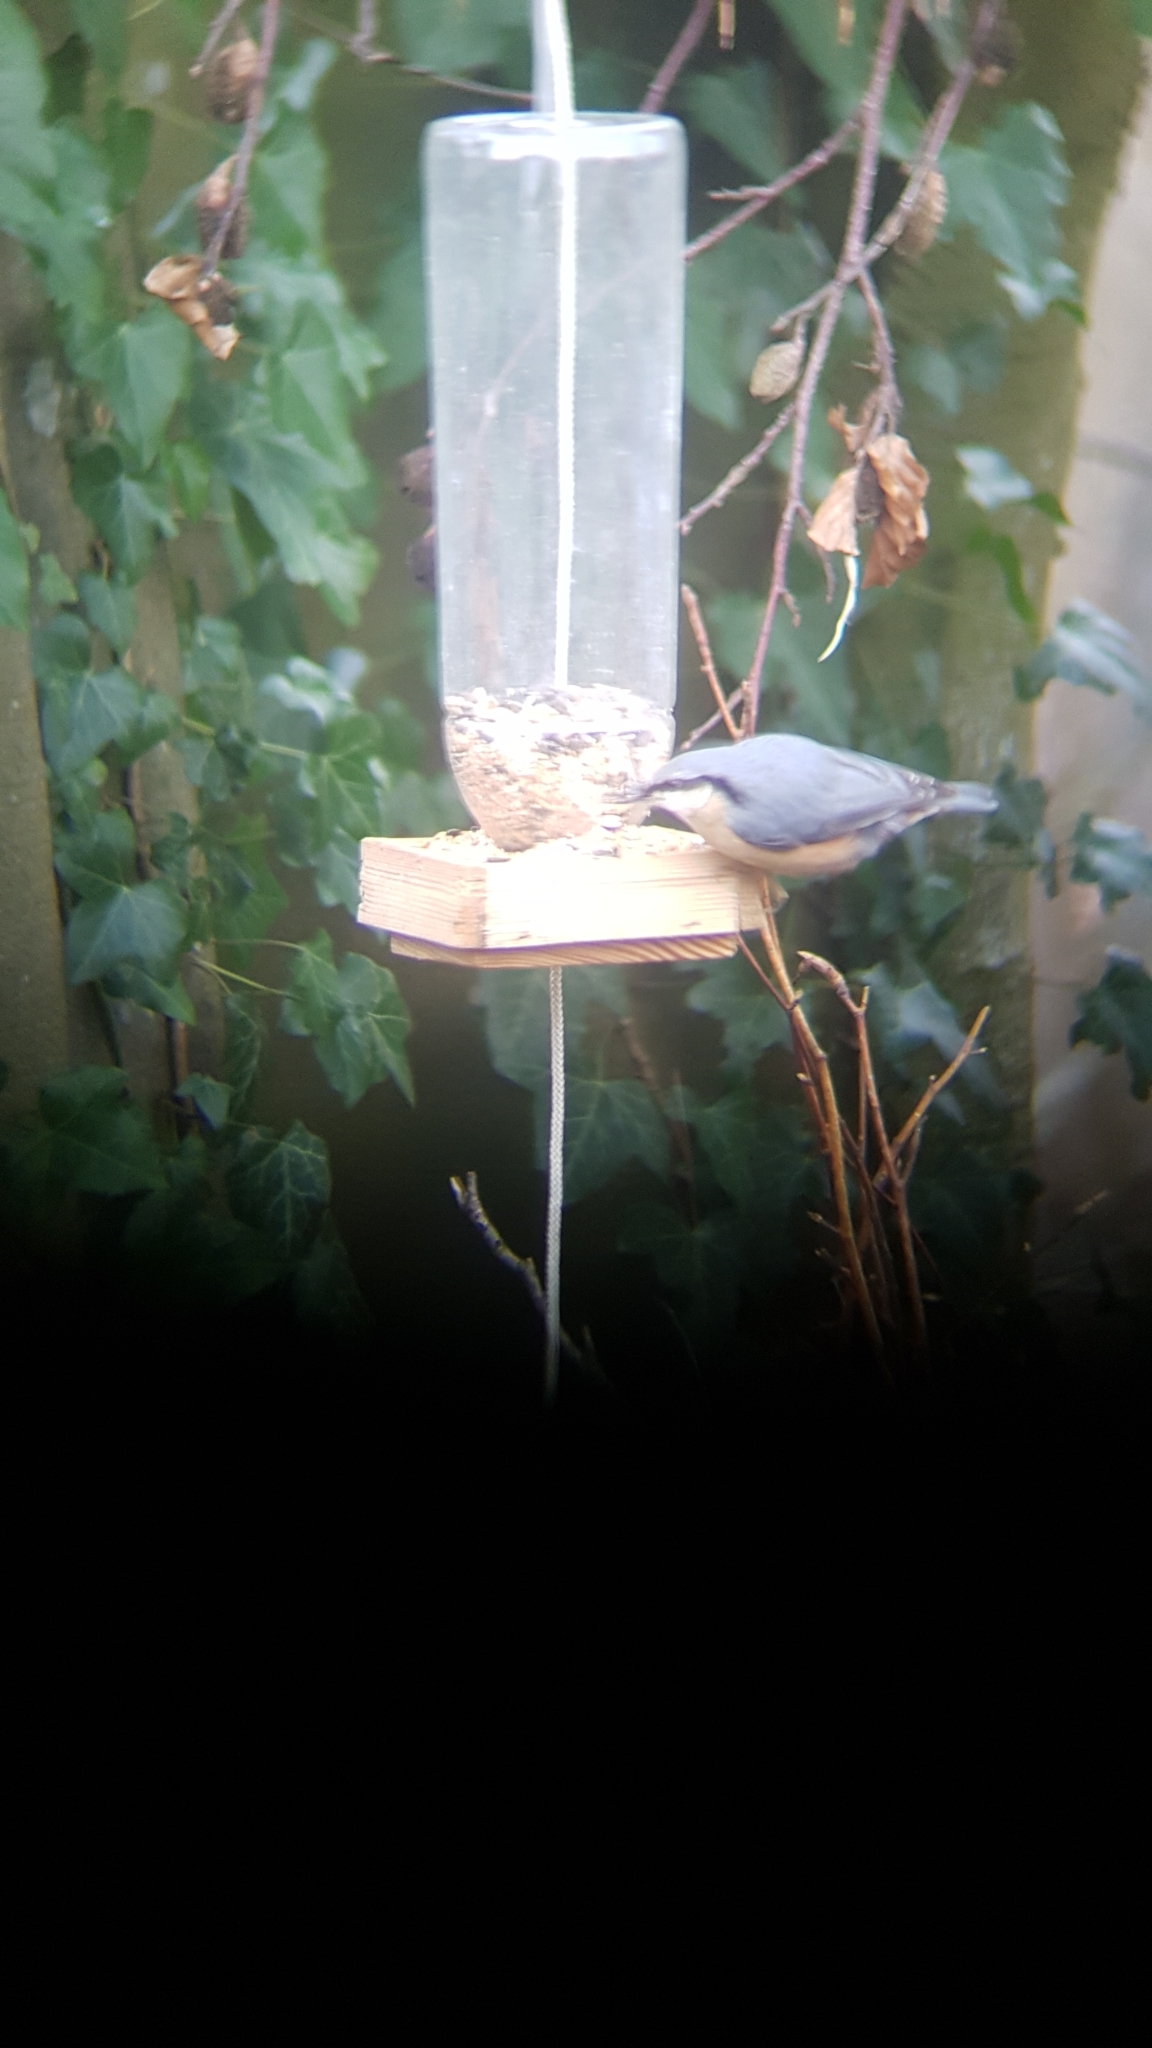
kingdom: Animalia
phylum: Chordata
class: Aves
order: Passeriformes
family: Sittidae
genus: Sitta
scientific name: Sitta europaea
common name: Eurasian nuthatch
